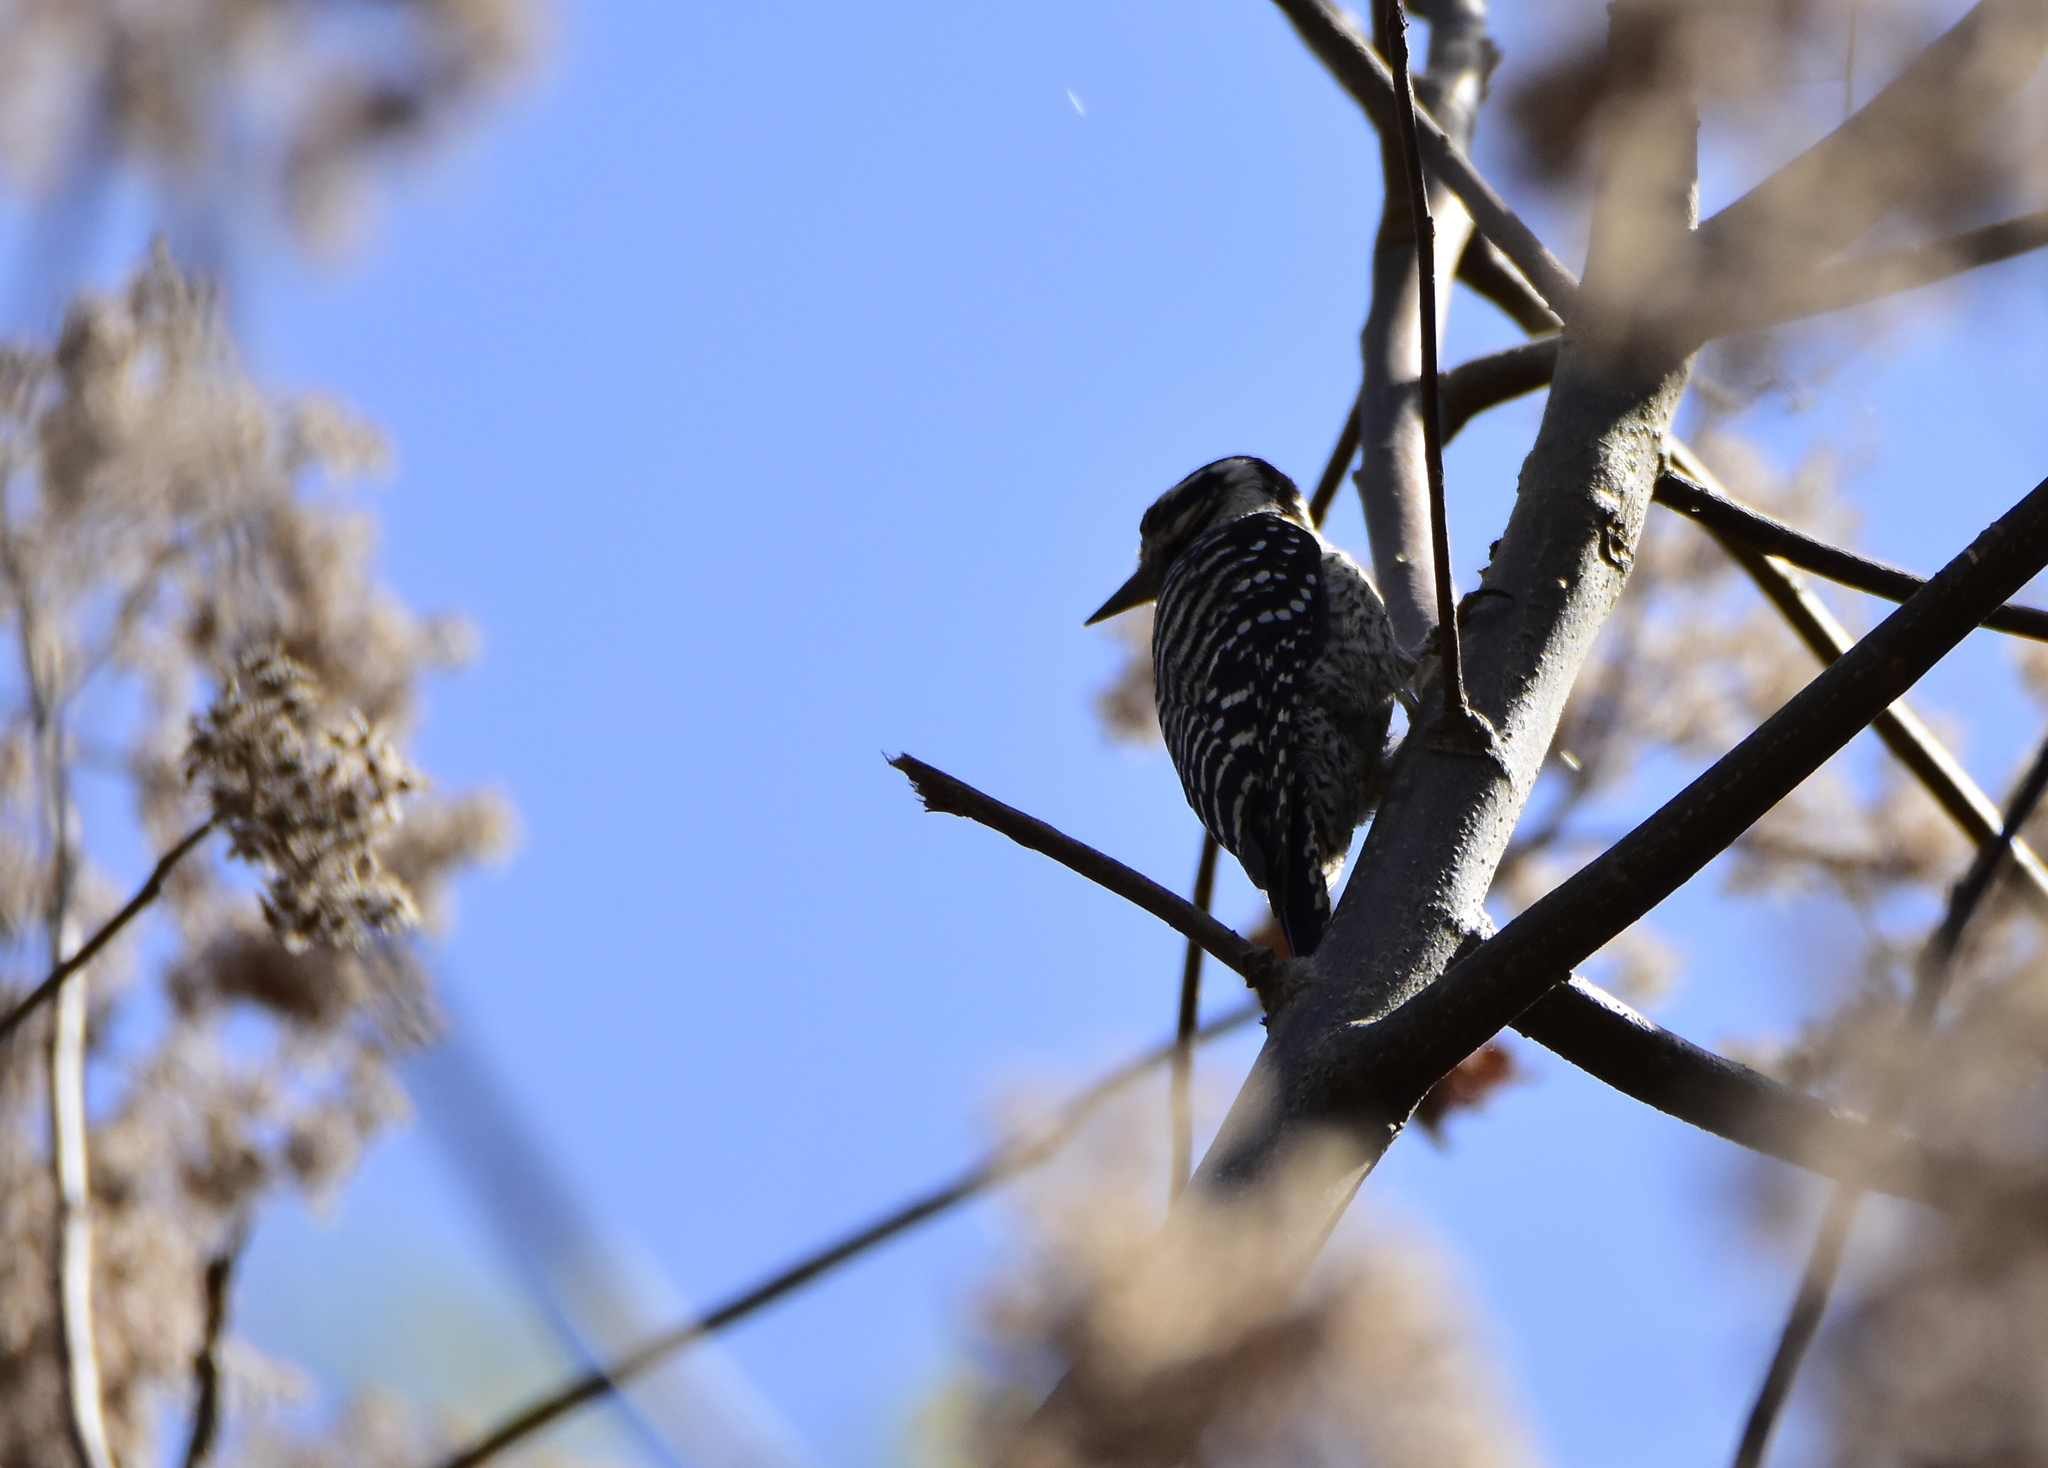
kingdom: Animalia
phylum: Chordata
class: Aves
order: Piciformes
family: Picidae
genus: Dryobates
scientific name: Dryobates scalaris
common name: Ladder-backed woodpecker
